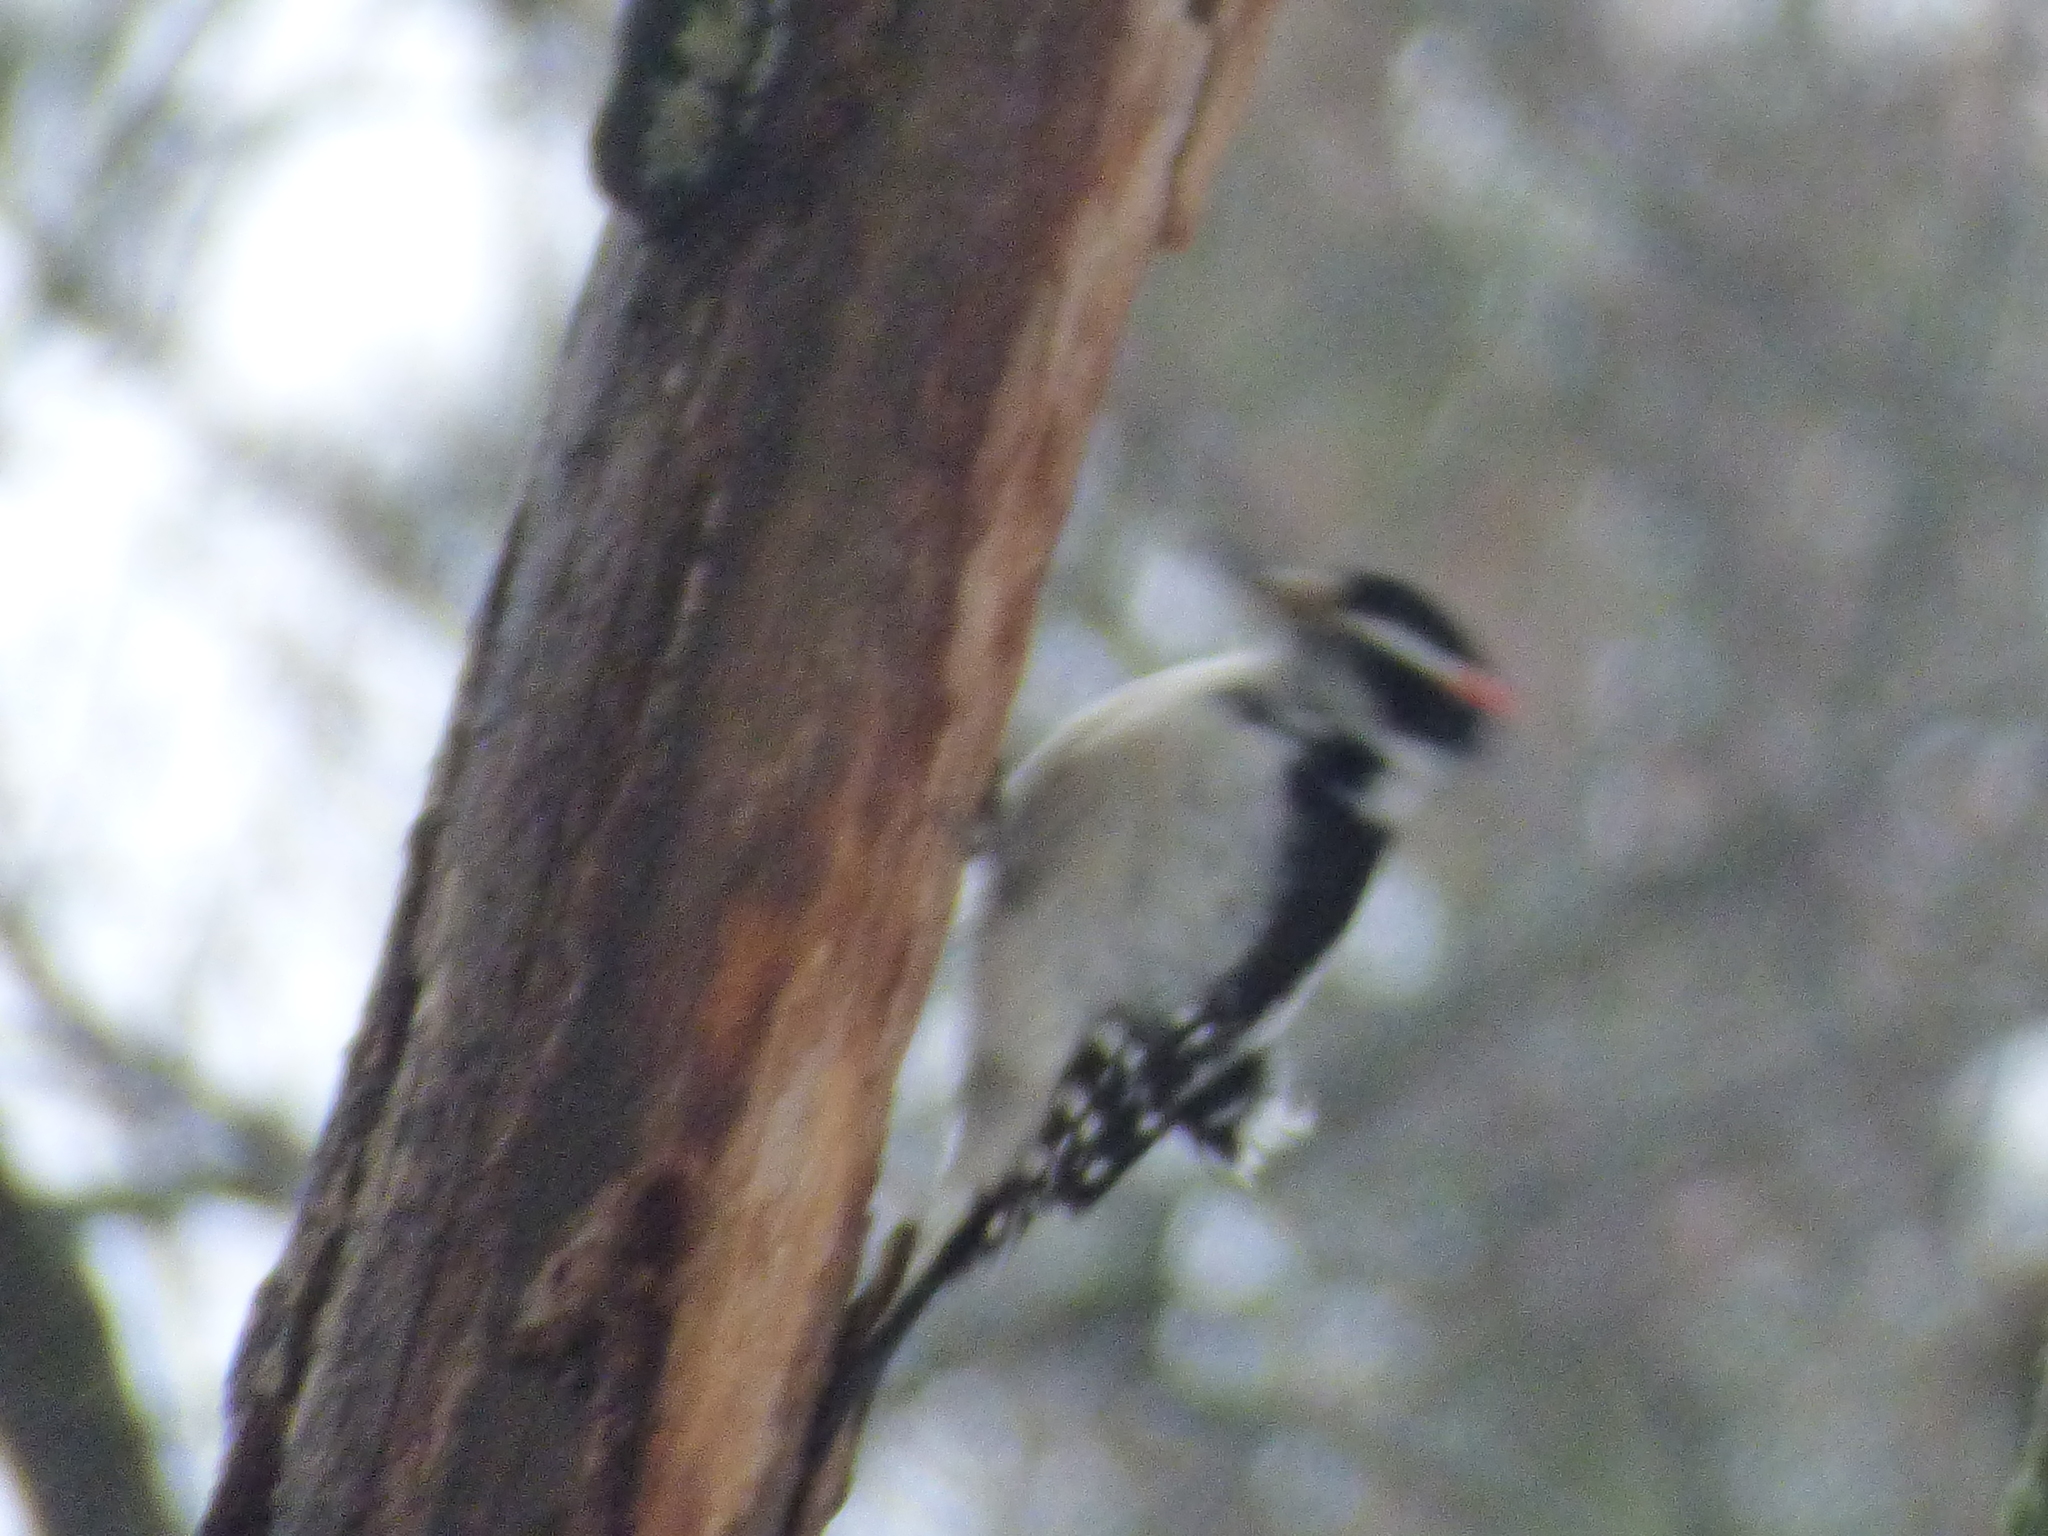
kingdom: Animalia
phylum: Chordata
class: Aves
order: Piciformes
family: Picidae
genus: Leuconotopicus
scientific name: Leuconotopicus villosus
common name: Hairy woodpecker
